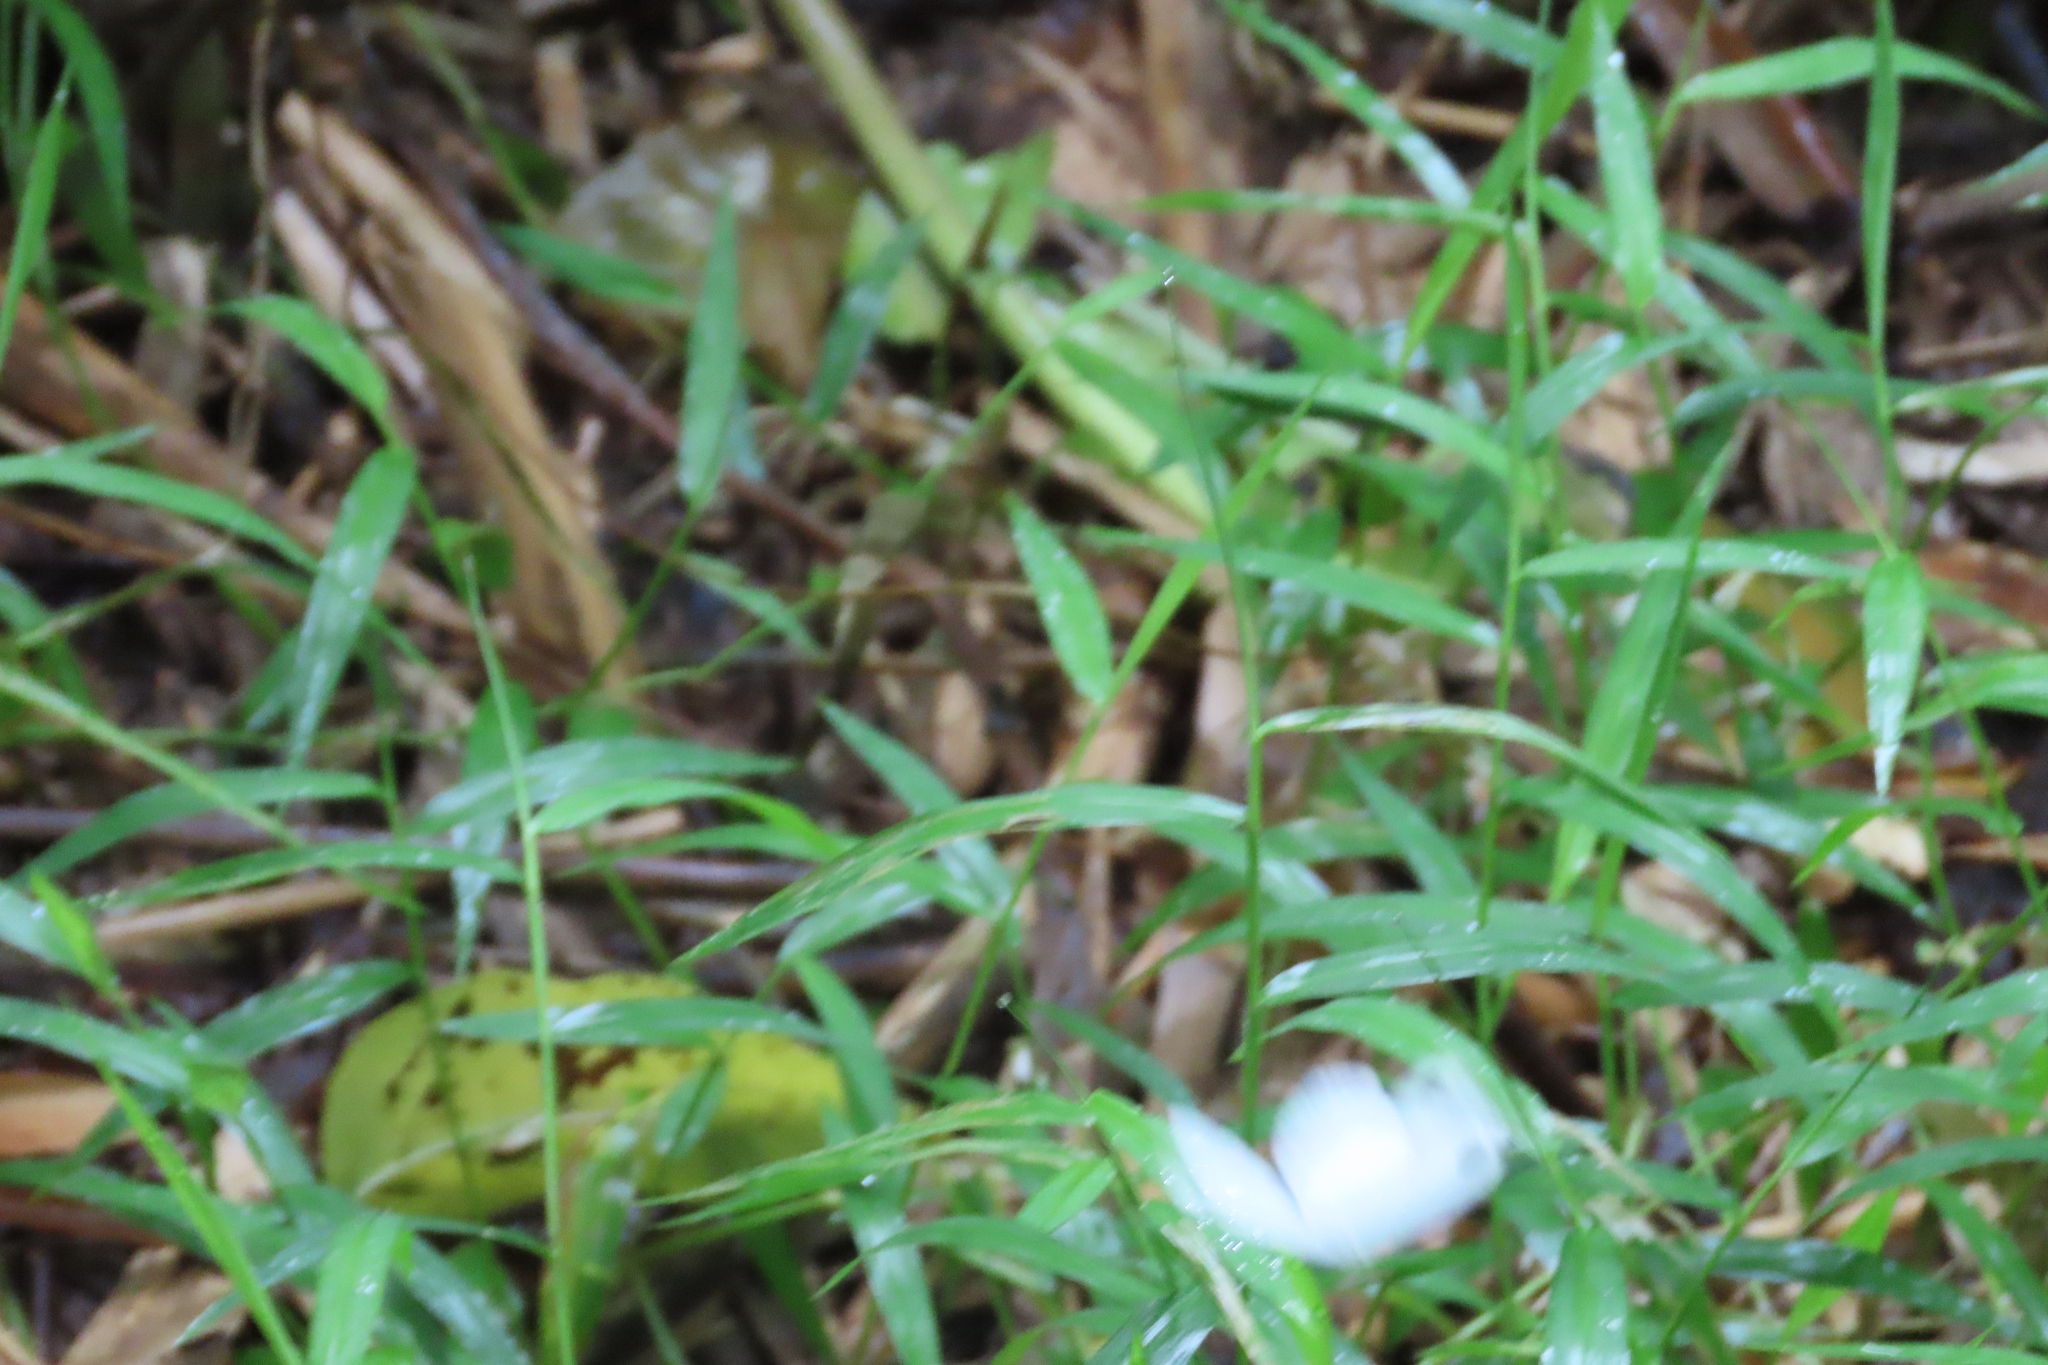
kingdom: Animalia
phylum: Arthropoda
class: Insecta
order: Lepidoptera
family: Pieridae
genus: Leptosia
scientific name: Leptosia nina
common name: Psyche
